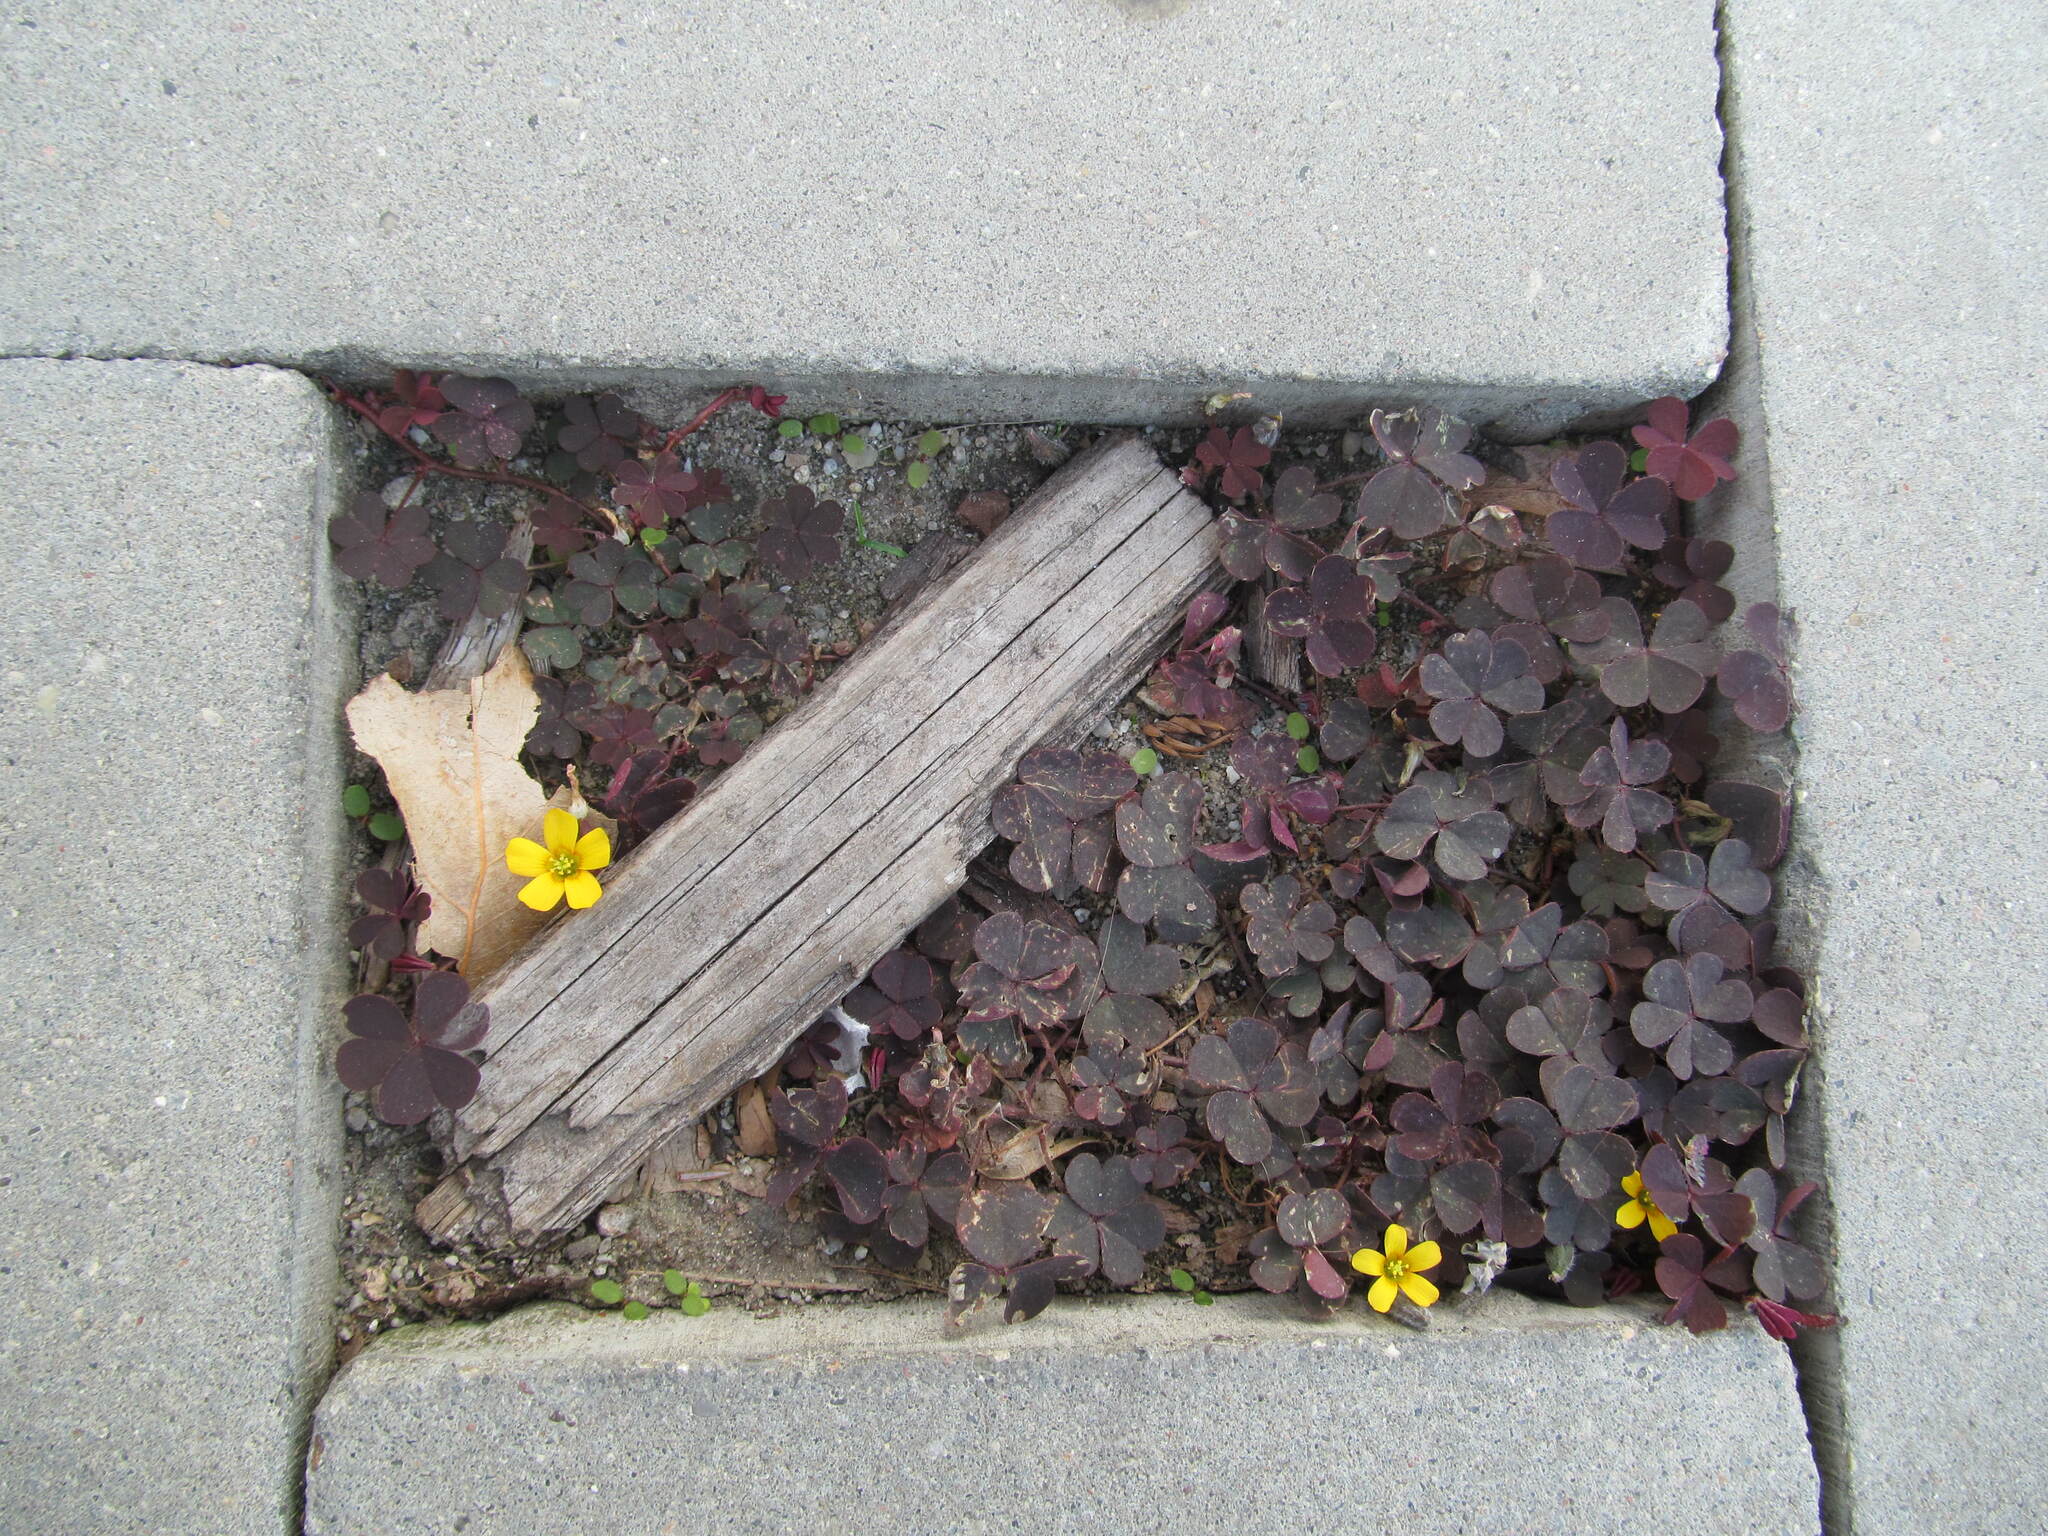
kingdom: Plantae
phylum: Tracheophyta
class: Magnoliopsida
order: Oxalidales
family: Oxalidaceae
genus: Oxalis
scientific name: Oxalis corniculata
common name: Procumbent yellow-sorrel
